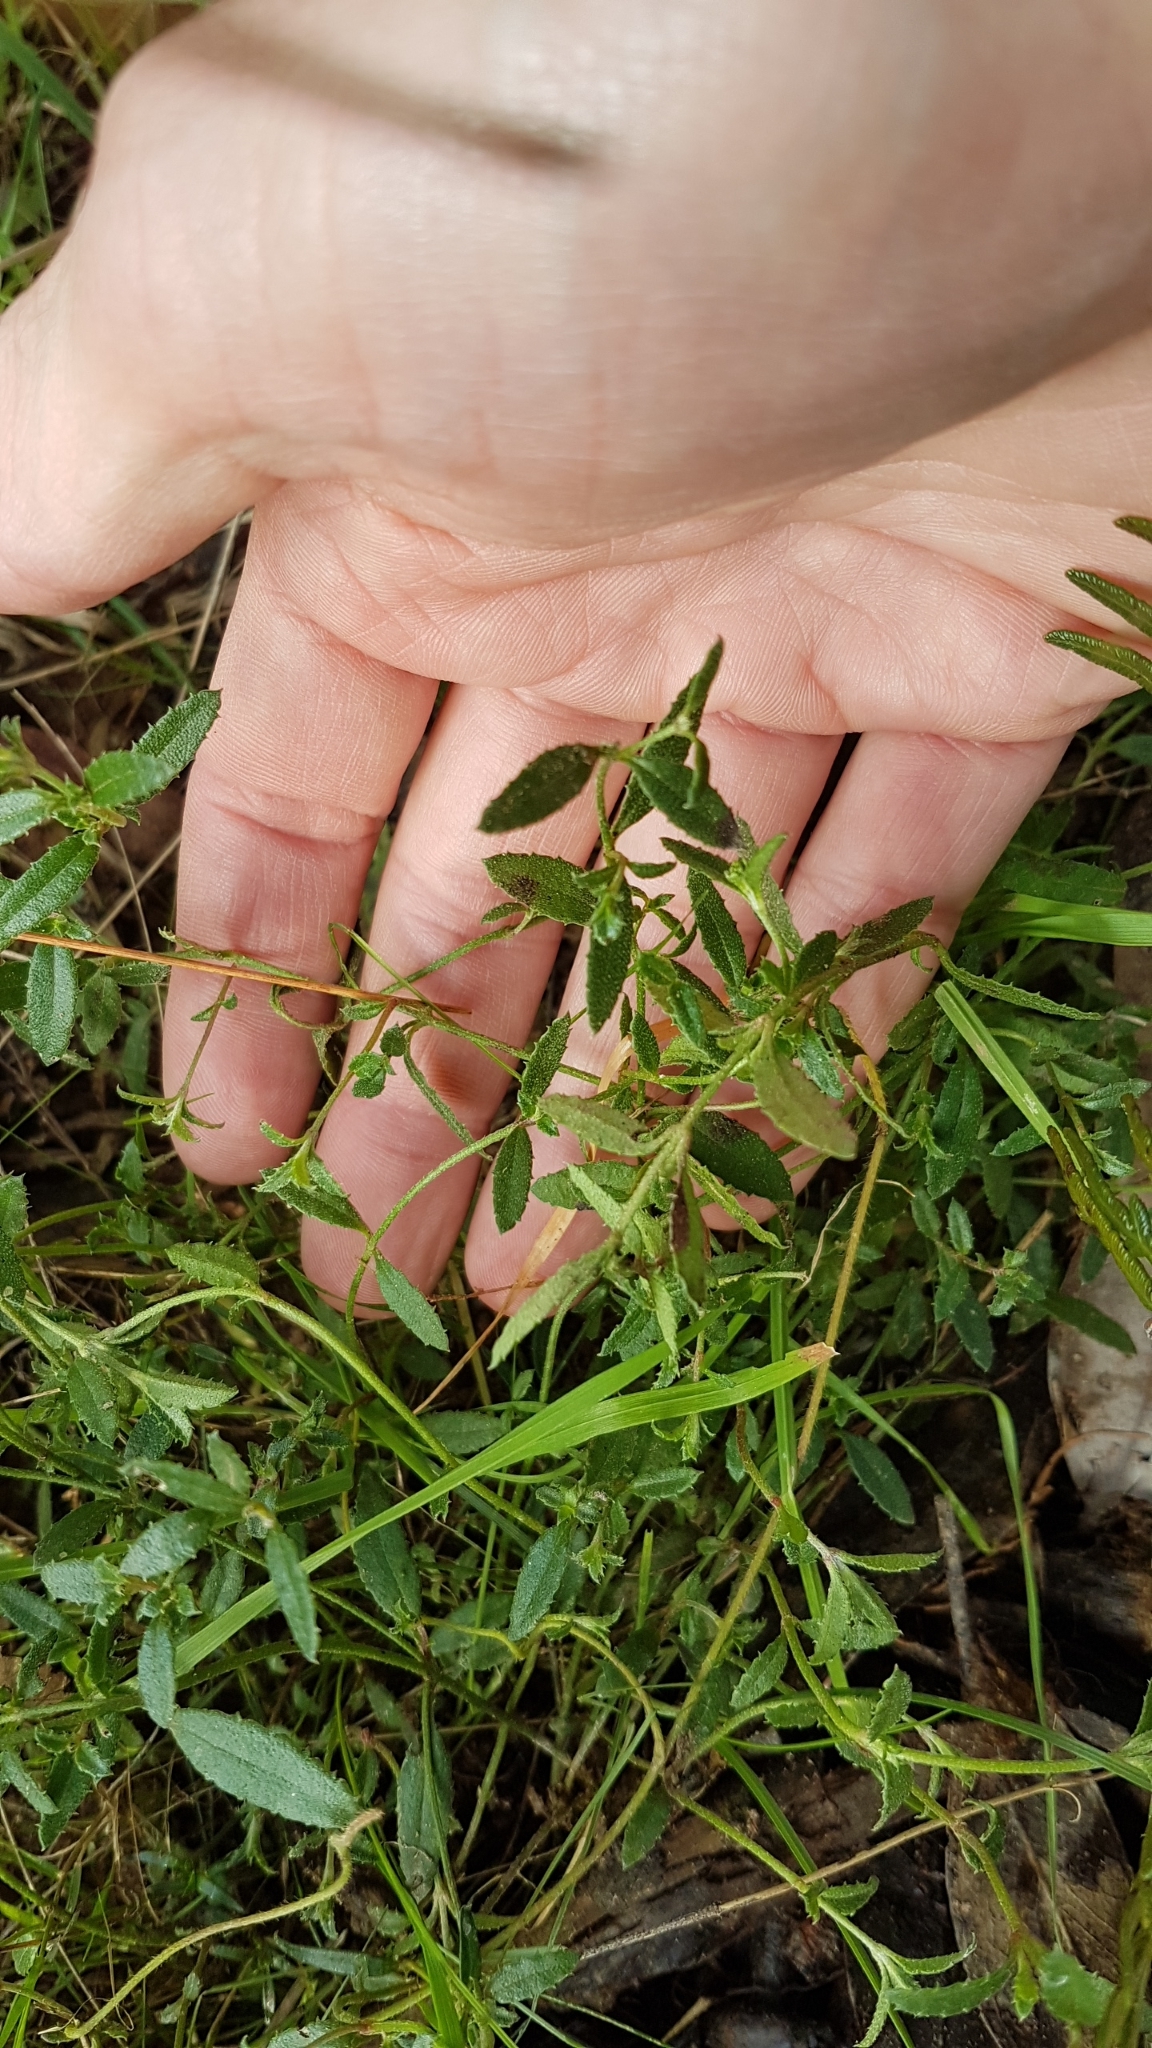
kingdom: Plantae
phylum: Tracheophyta
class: Magnoliopsida
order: Saxifragales
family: Haloragaceae
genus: Gonocarpus
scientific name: Gonocarpus tetragynus
